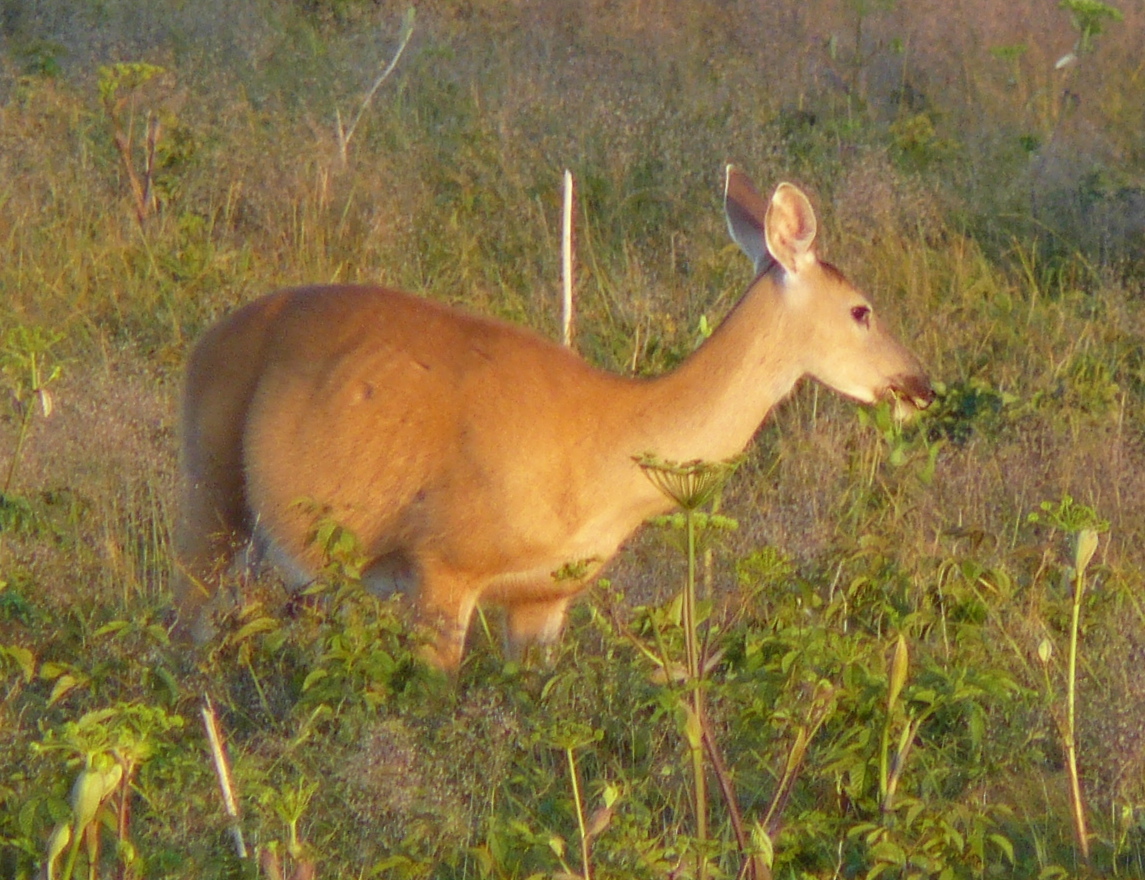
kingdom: Animalia
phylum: Chordata
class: Mammalia
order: Artiodactyla
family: Cervidae
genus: Odocoileus
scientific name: Odocoileus virginianus
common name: White-tailed deer
